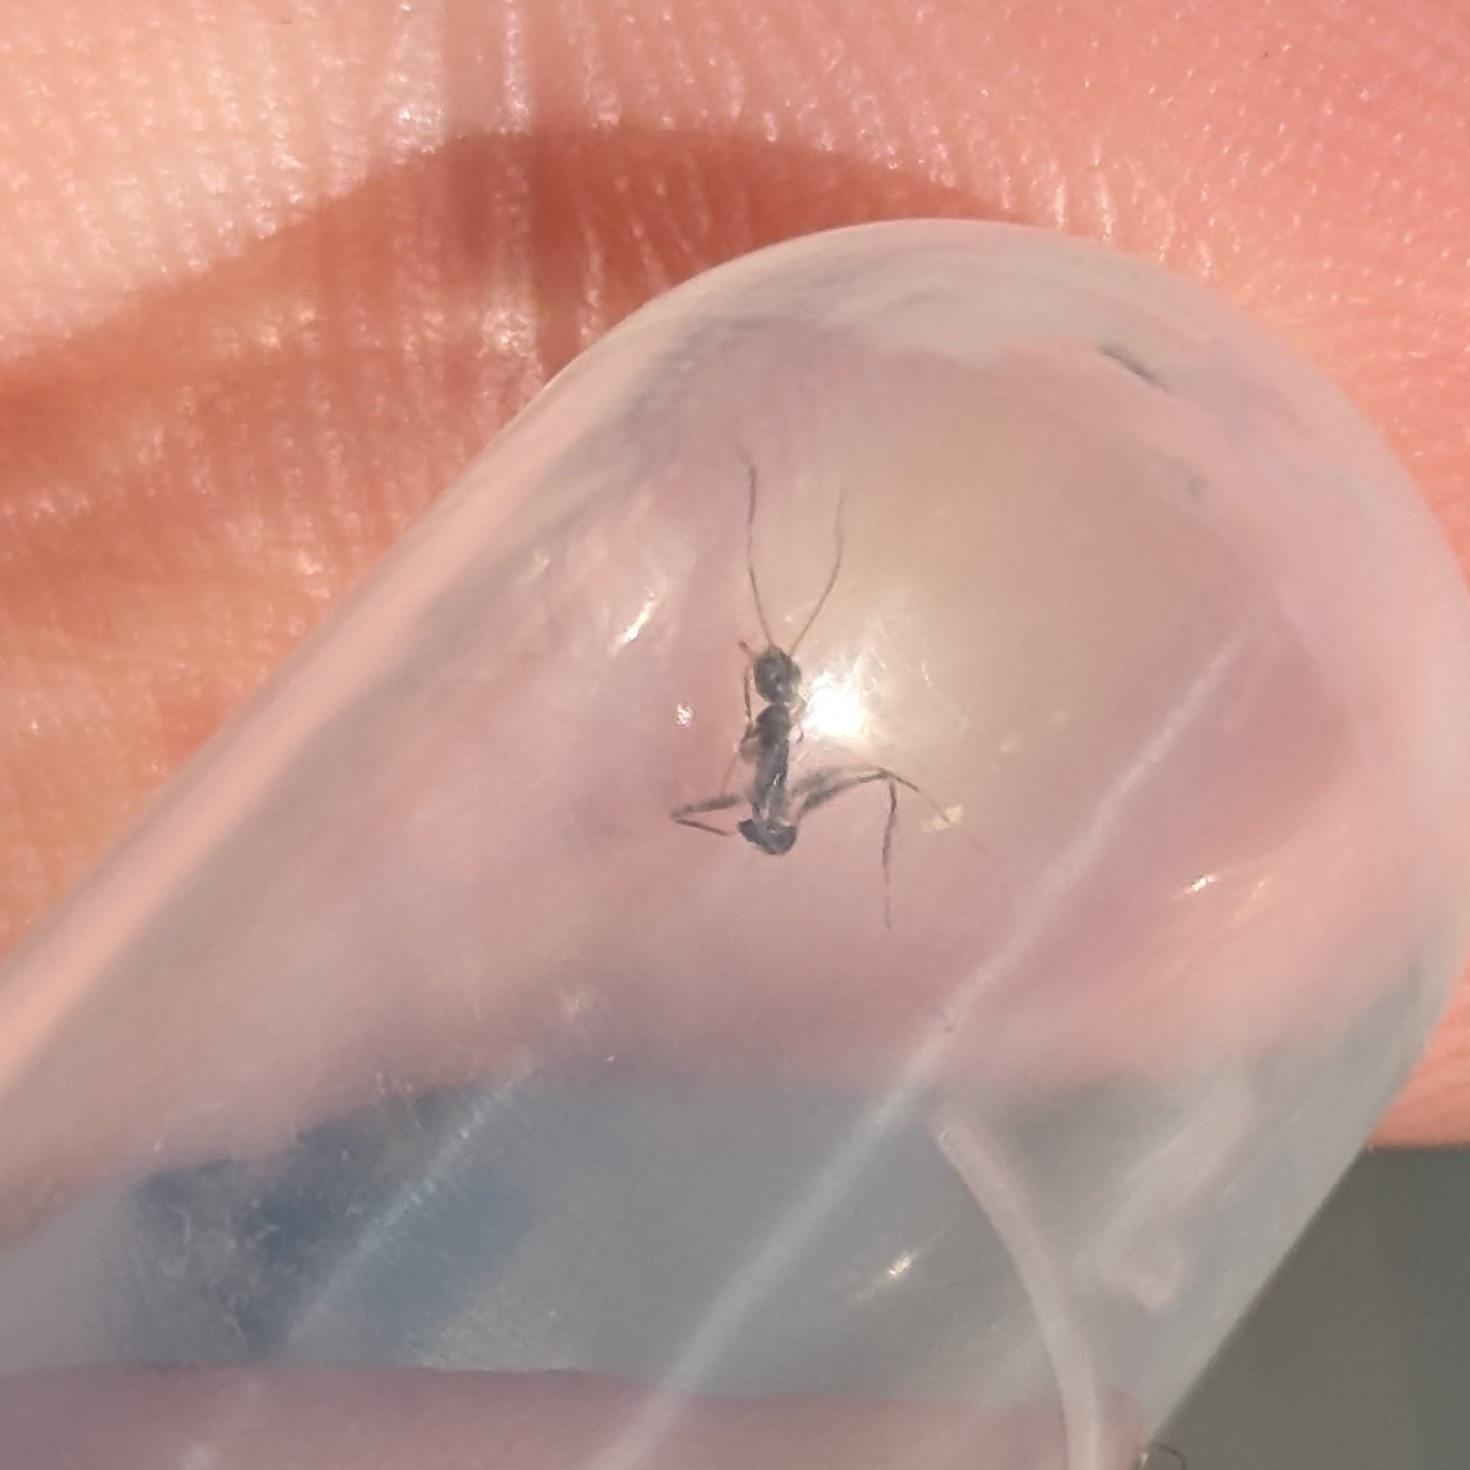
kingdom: Animalia
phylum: Arthropoda
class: Insecta
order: Hymenoptera
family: Formicidae
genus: Paratrechina
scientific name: Paratrechina longicornis
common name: Longhorned crazy ant
